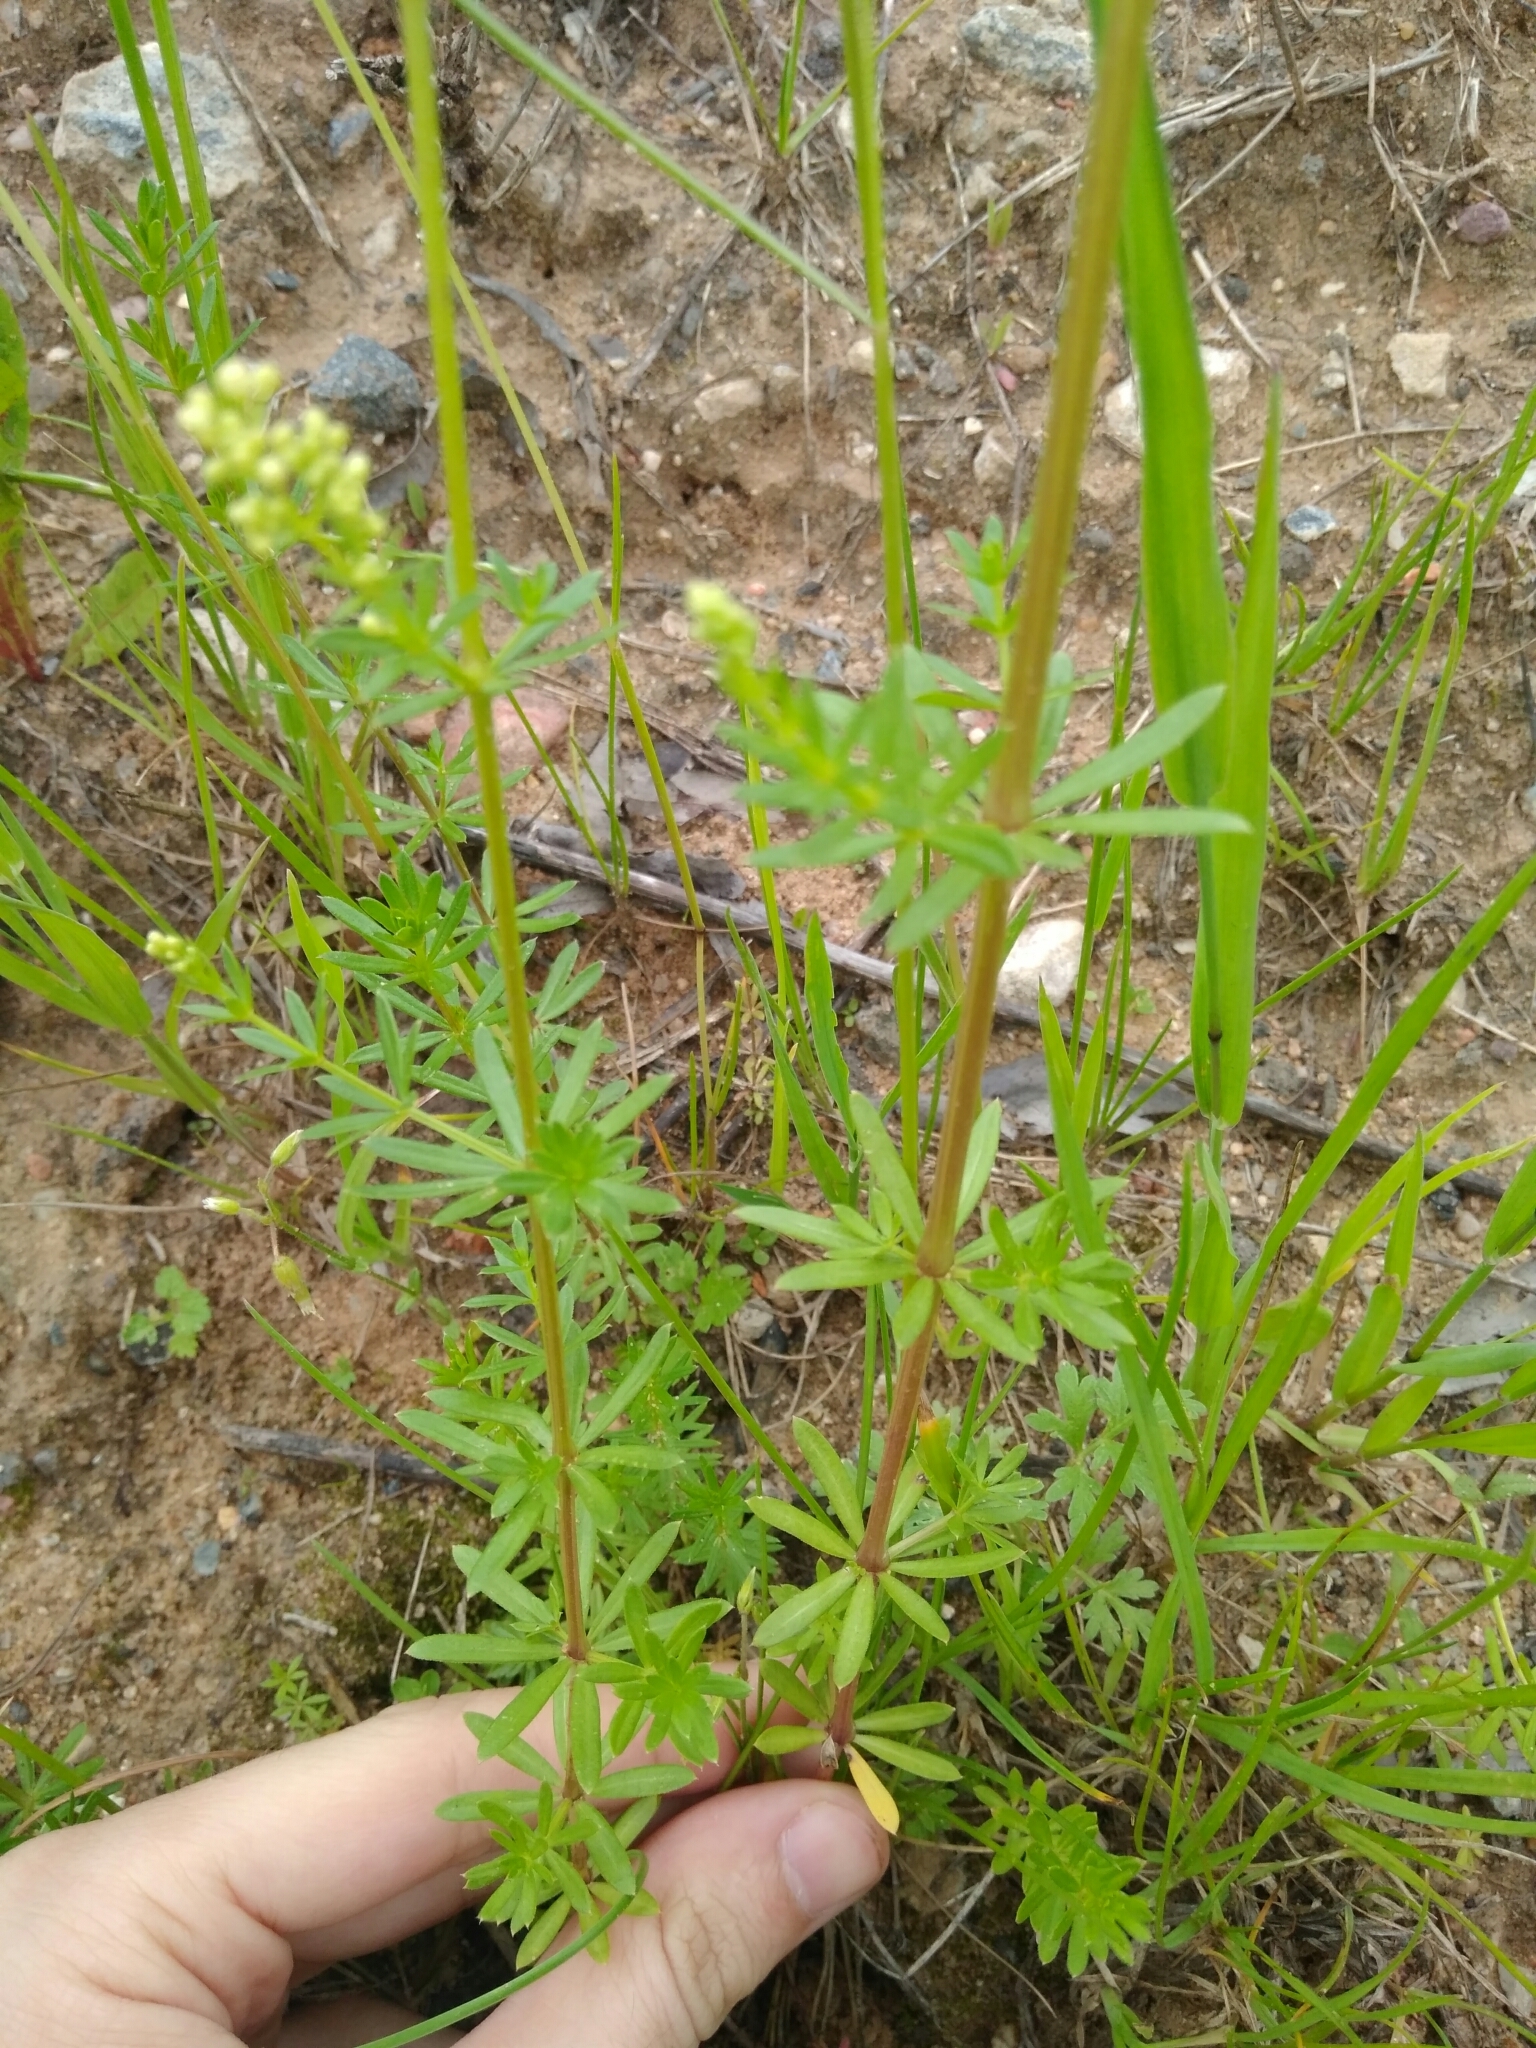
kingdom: Plantae
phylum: Tracheophyta
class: Magnoliopsida
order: Gentianales
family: Rubiaceae
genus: Galium
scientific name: Galium mollugo
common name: Hedge bedstraw
